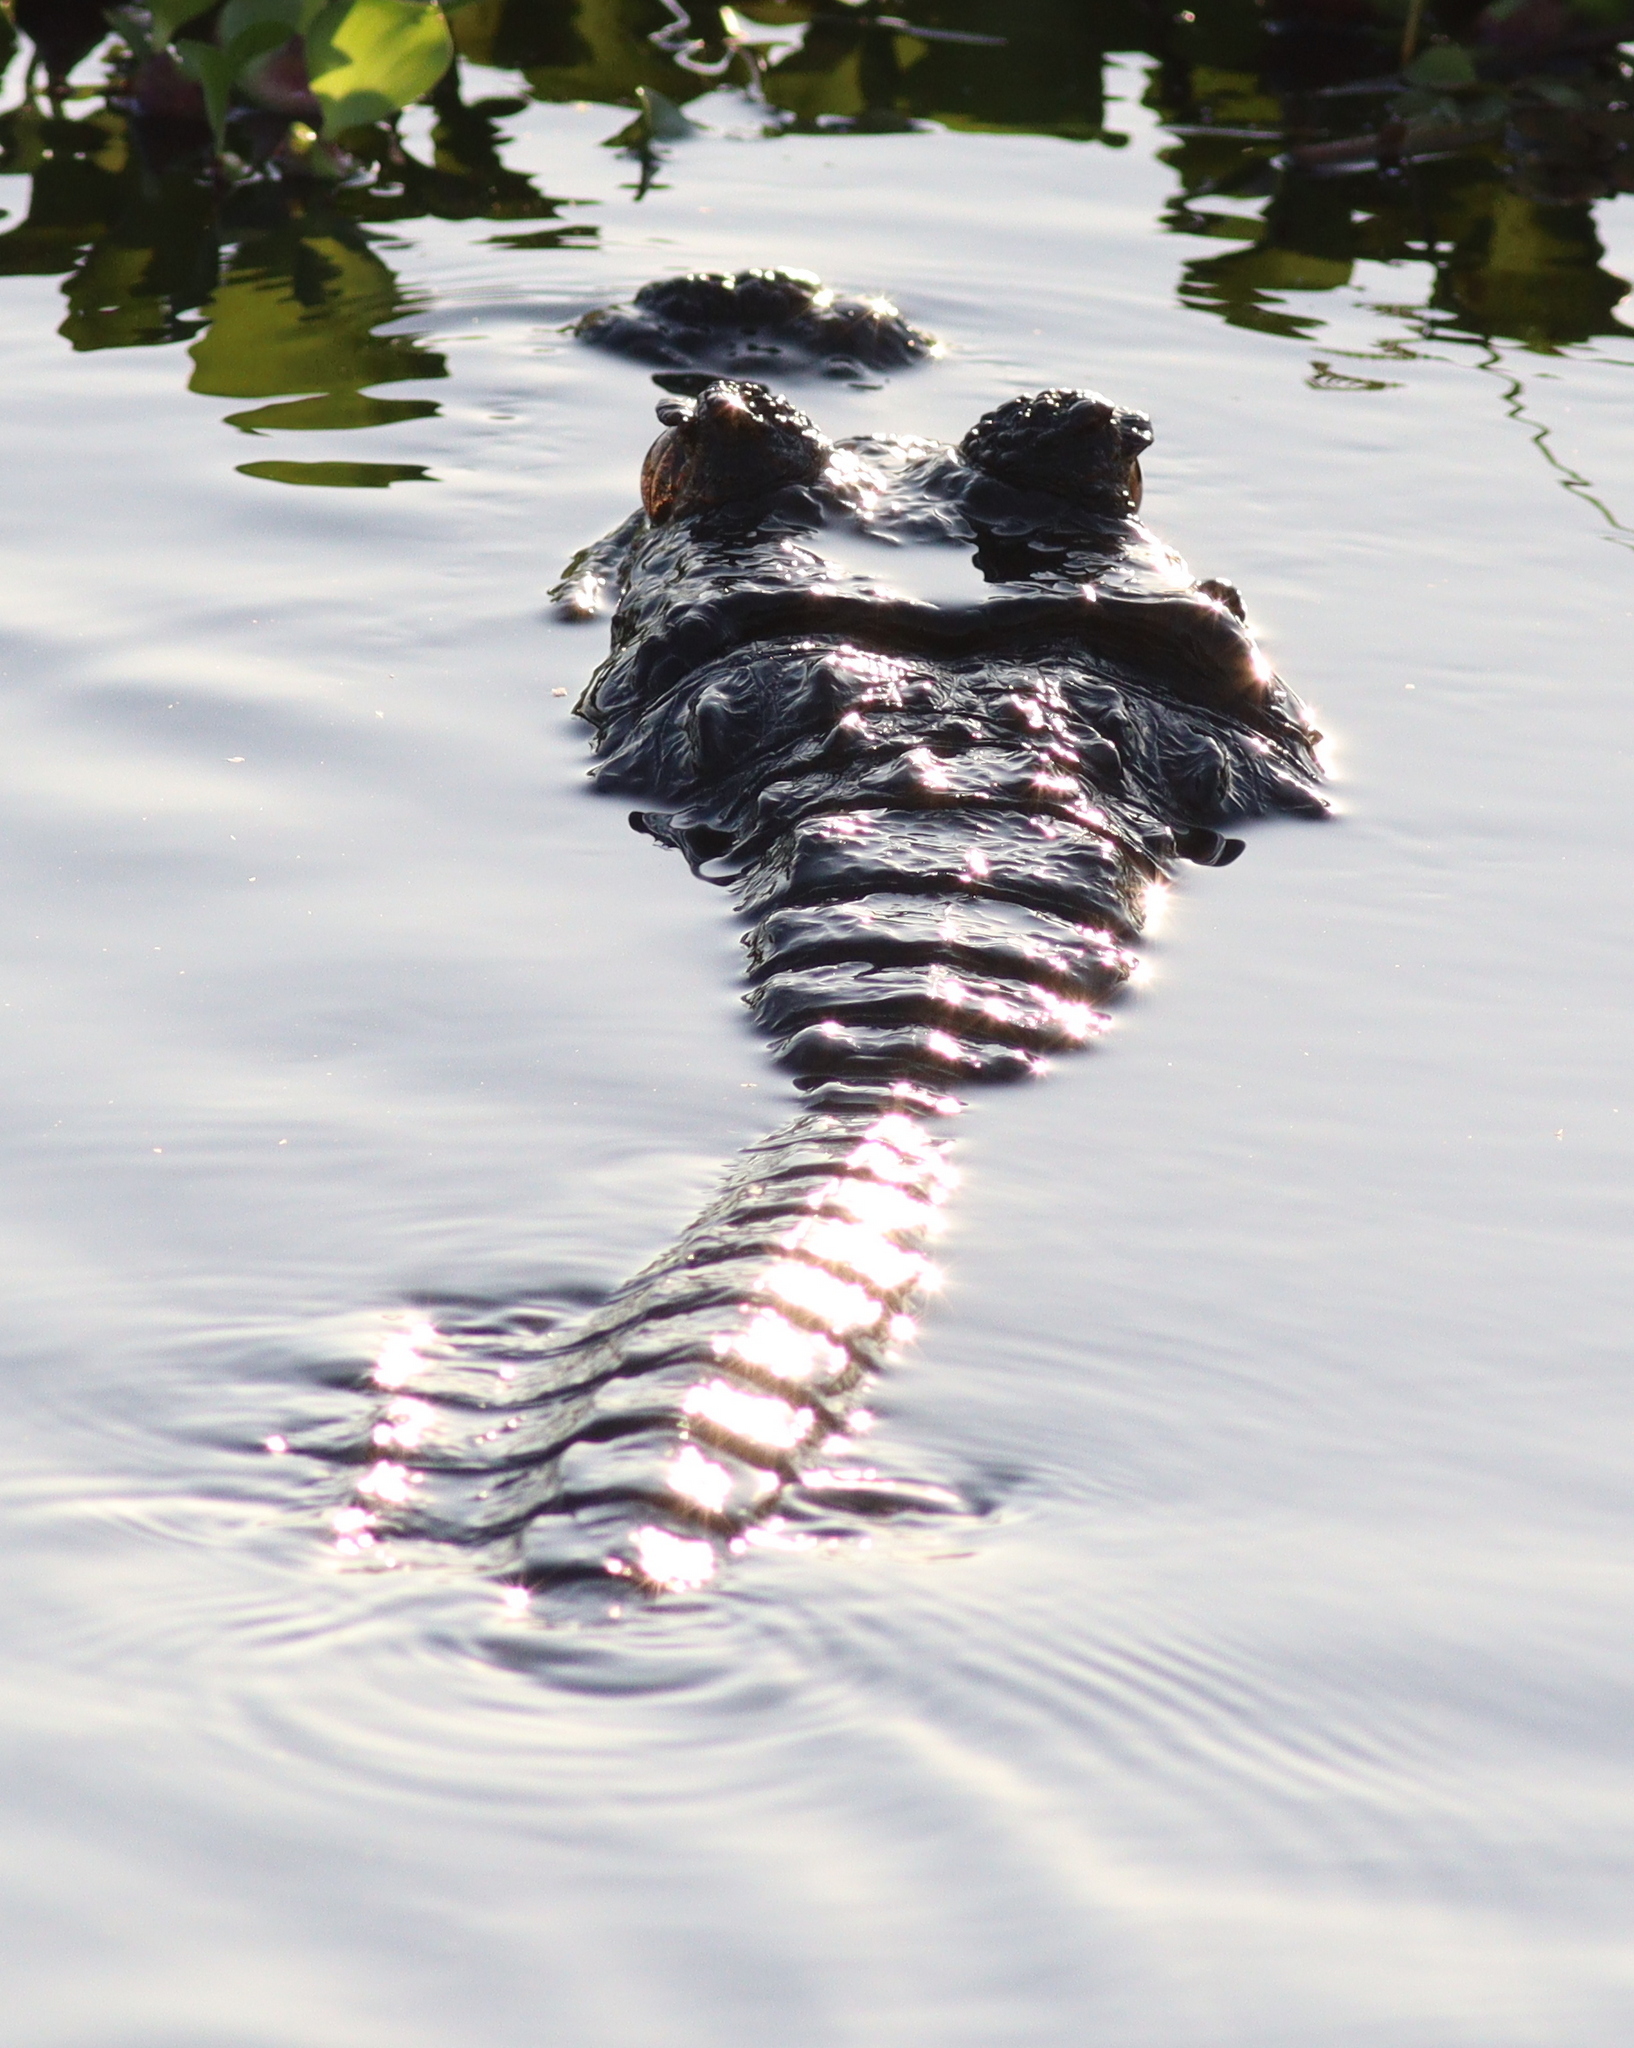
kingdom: Animalia
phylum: Chordata
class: Crocodylia
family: Alligatoridae
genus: Caiman
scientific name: Caiman yacare
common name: Yacare caiman
